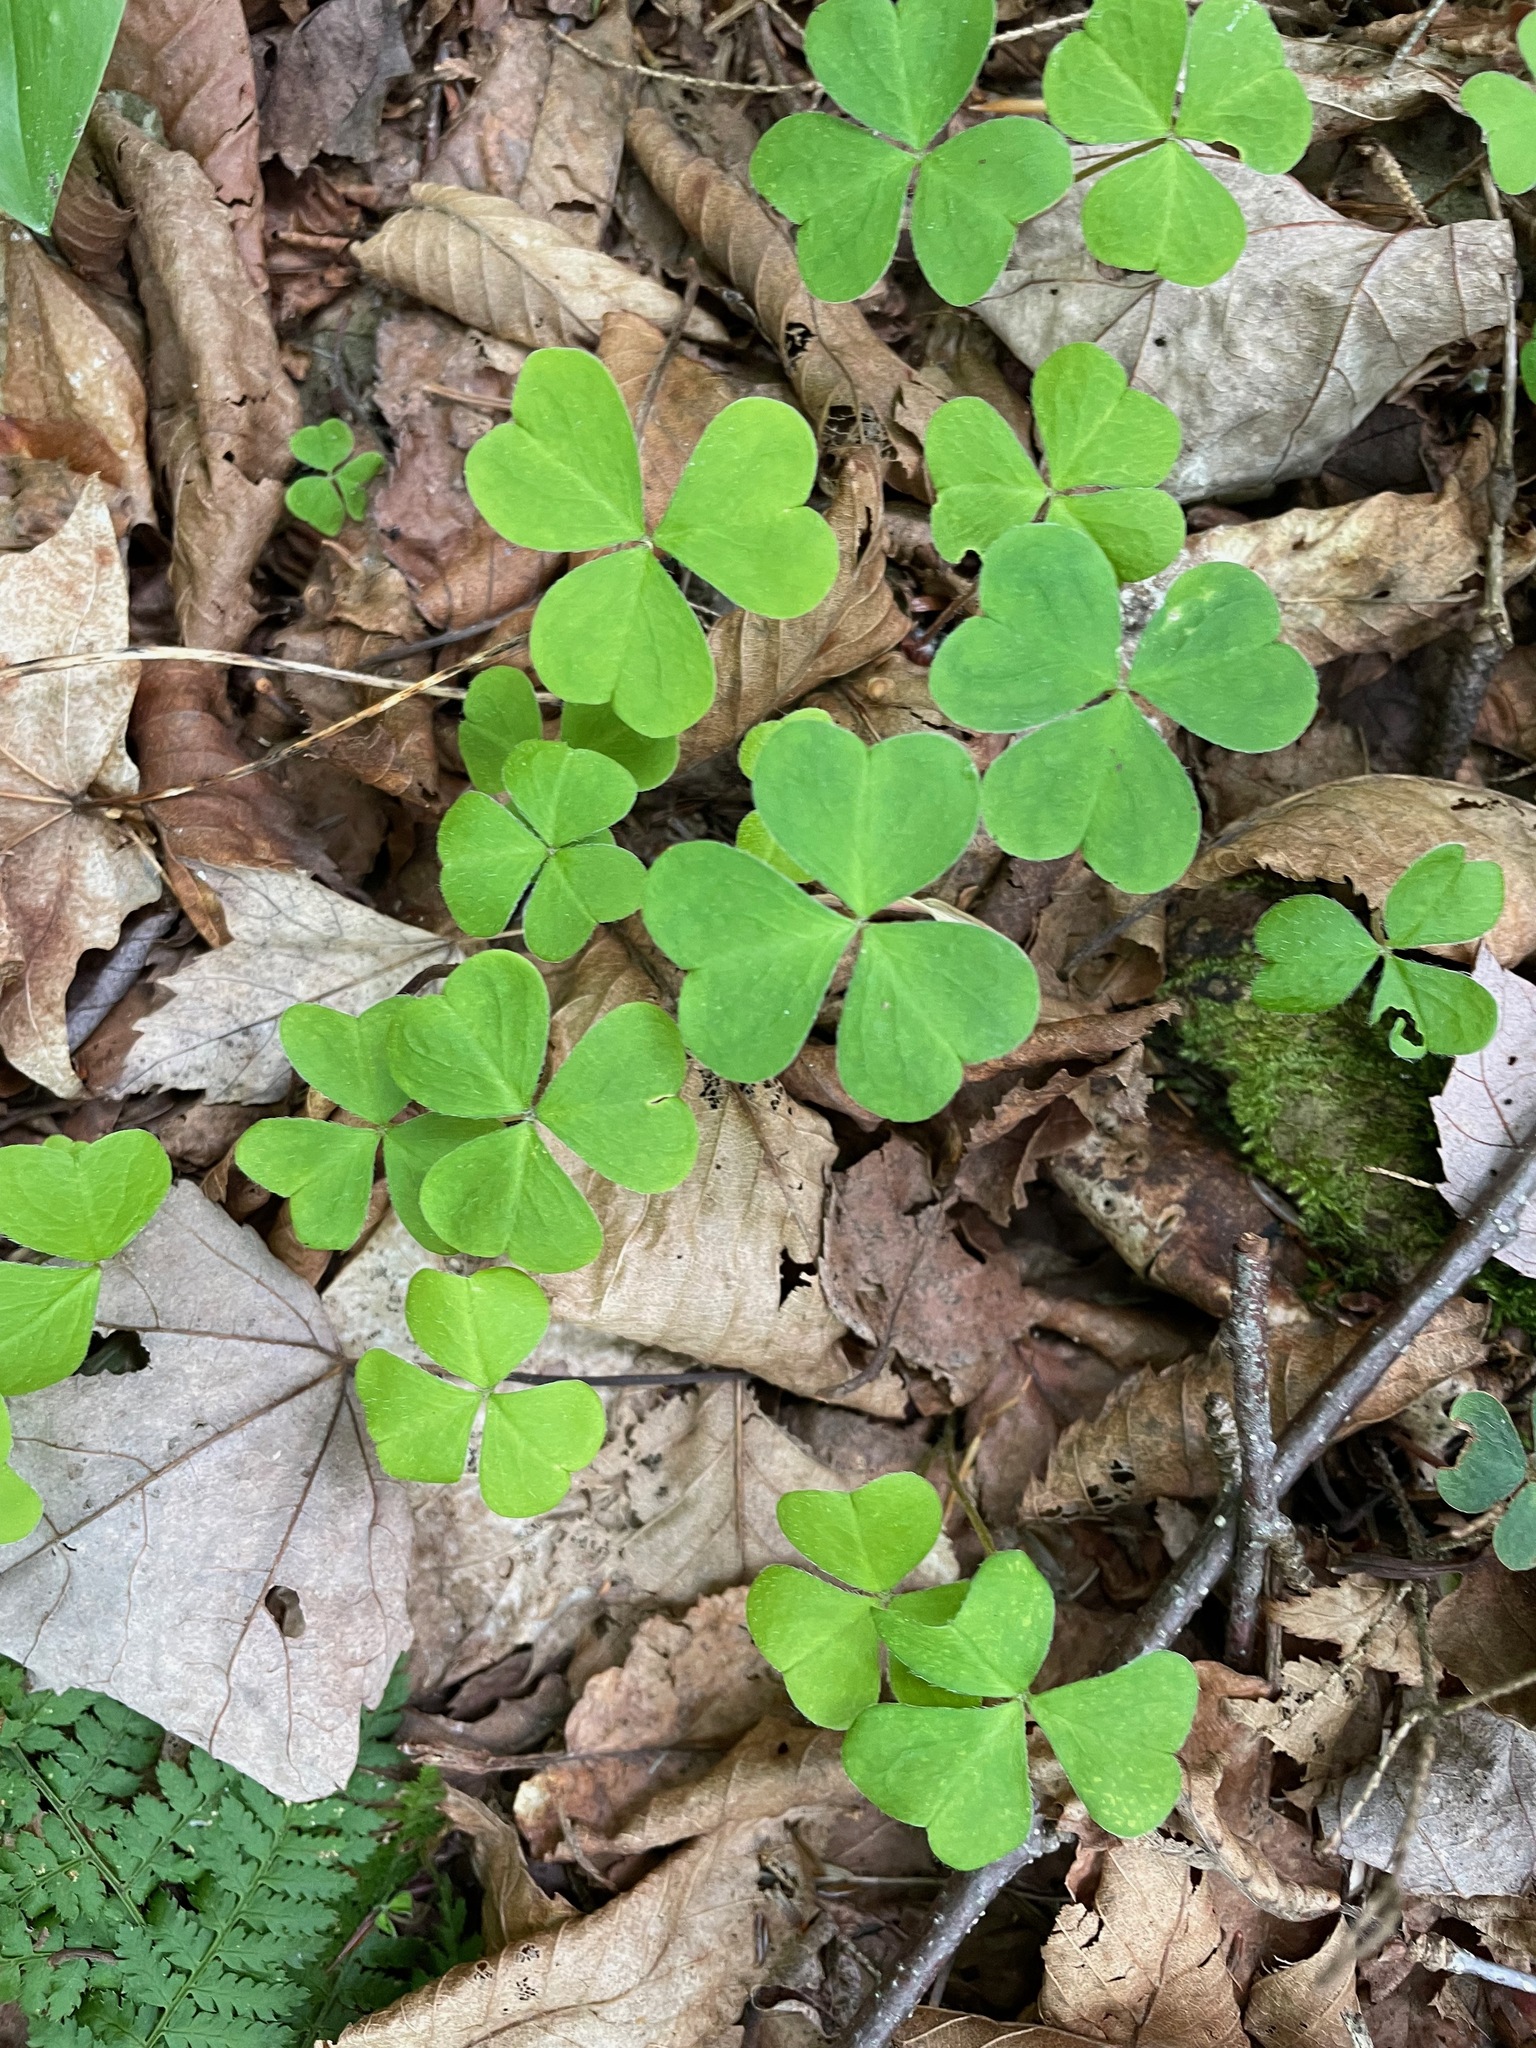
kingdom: Plantae
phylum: Tracheophyta
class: Magnoliopsida
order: Oxalidales
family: Oxalidaceae
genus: Oxalis
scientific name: Oxalis montana
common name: American wood-sorrel
